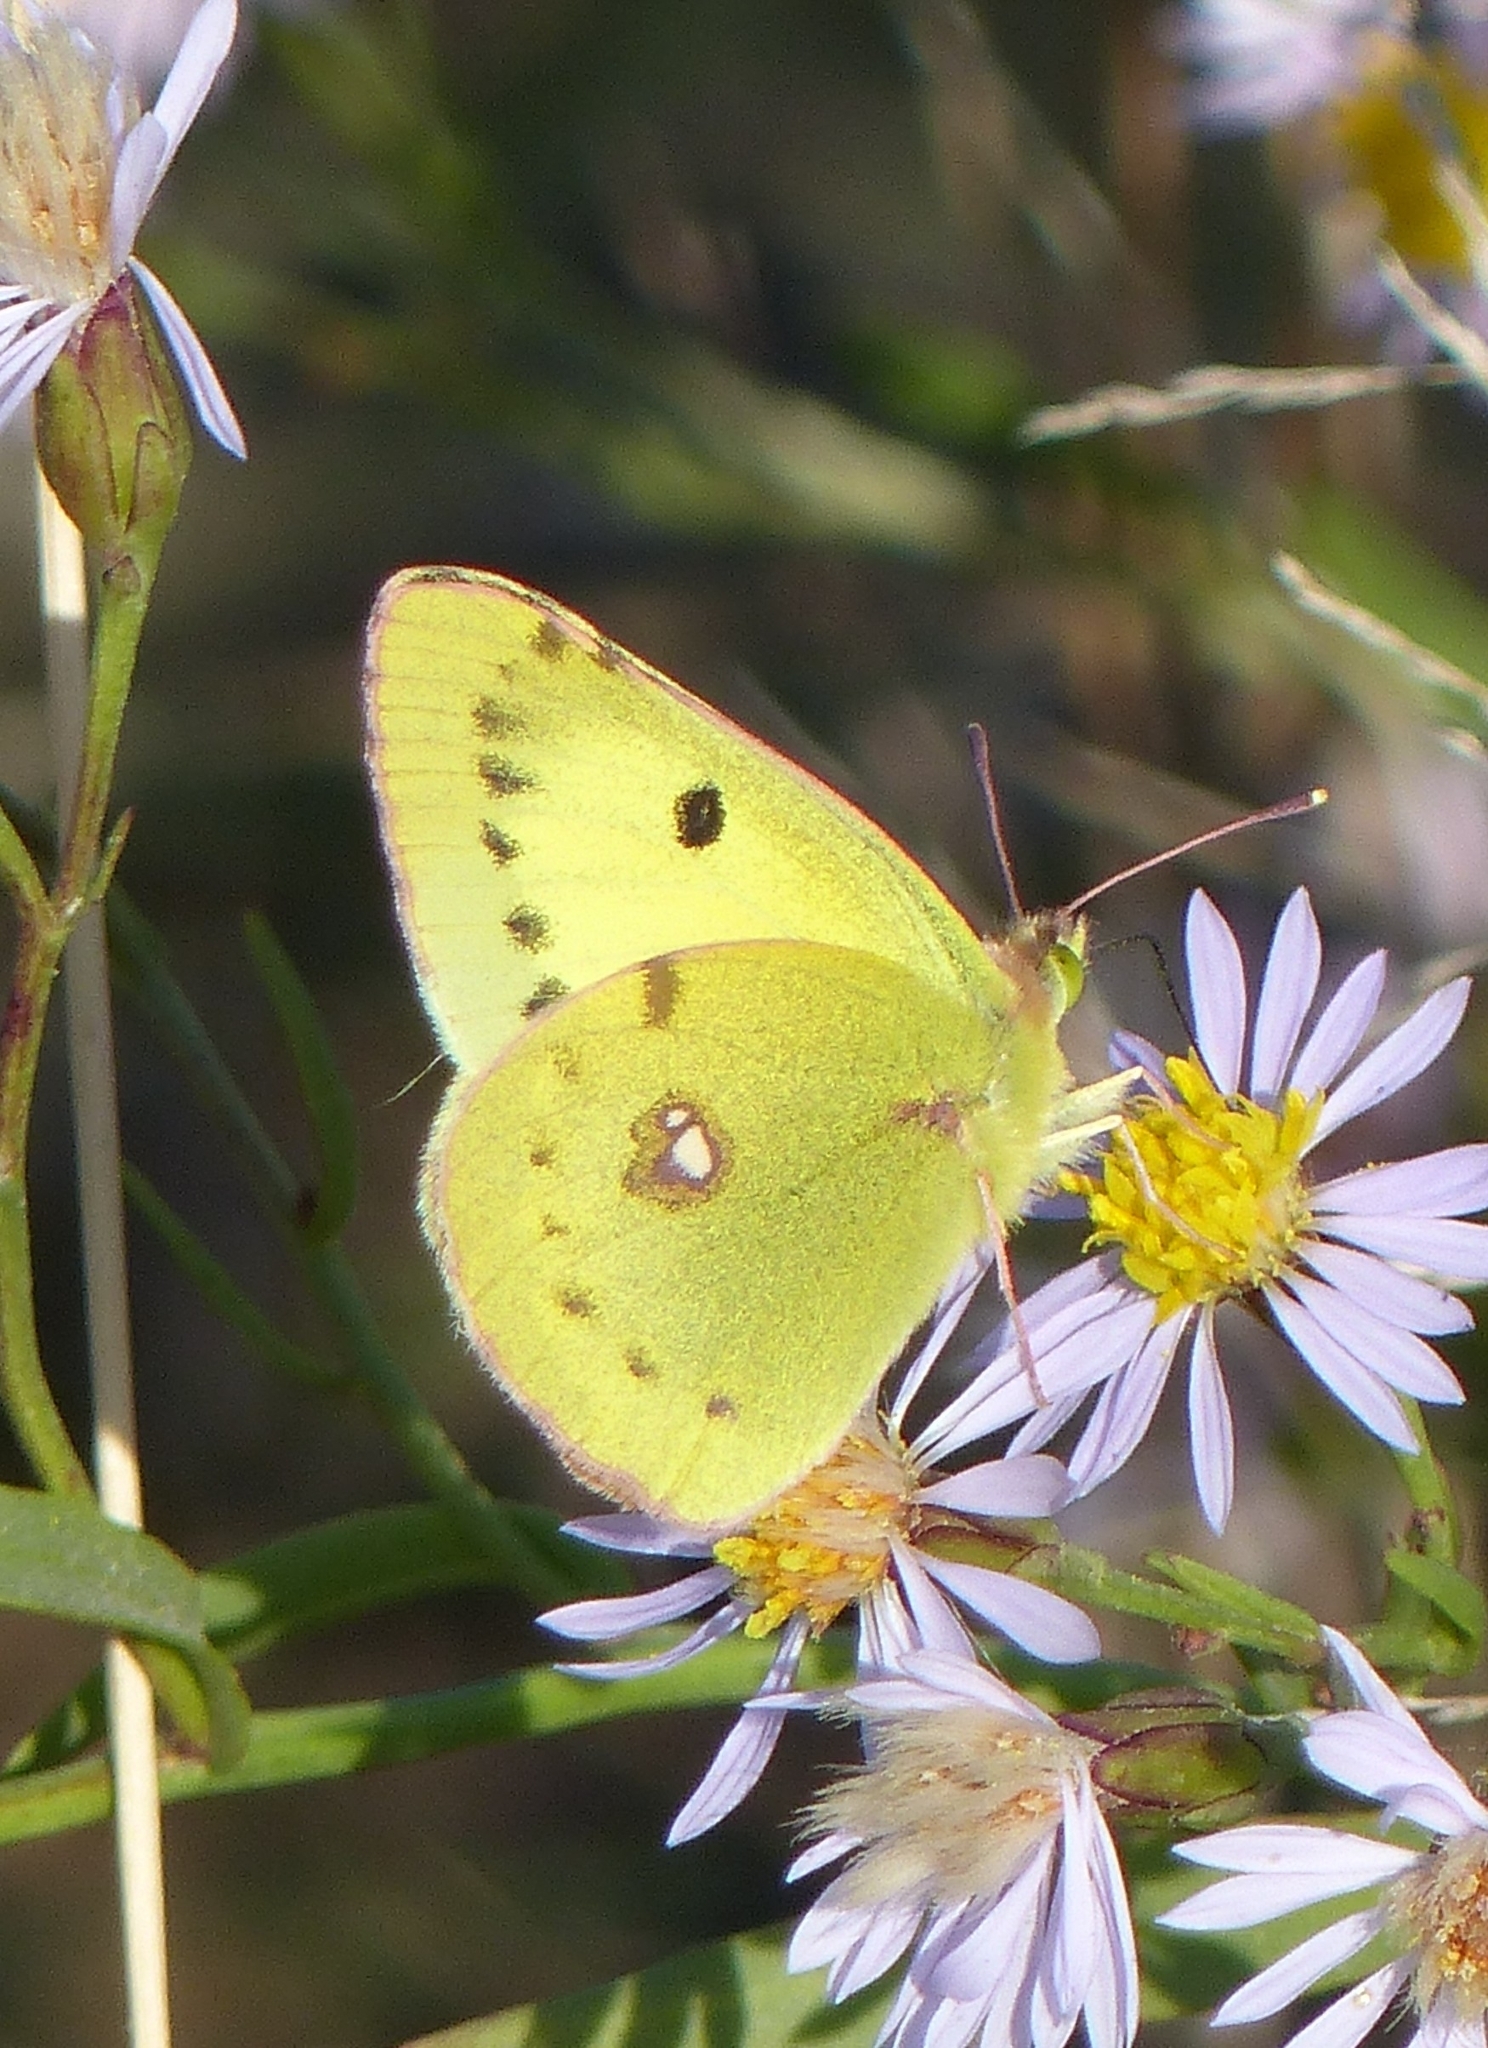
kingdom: Animalia
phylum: Arthropoda
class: Insecta
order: Lepidoptera
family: Pieridae
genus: Colias
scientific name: Colias erate
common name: Eastern pale clouded yellow
